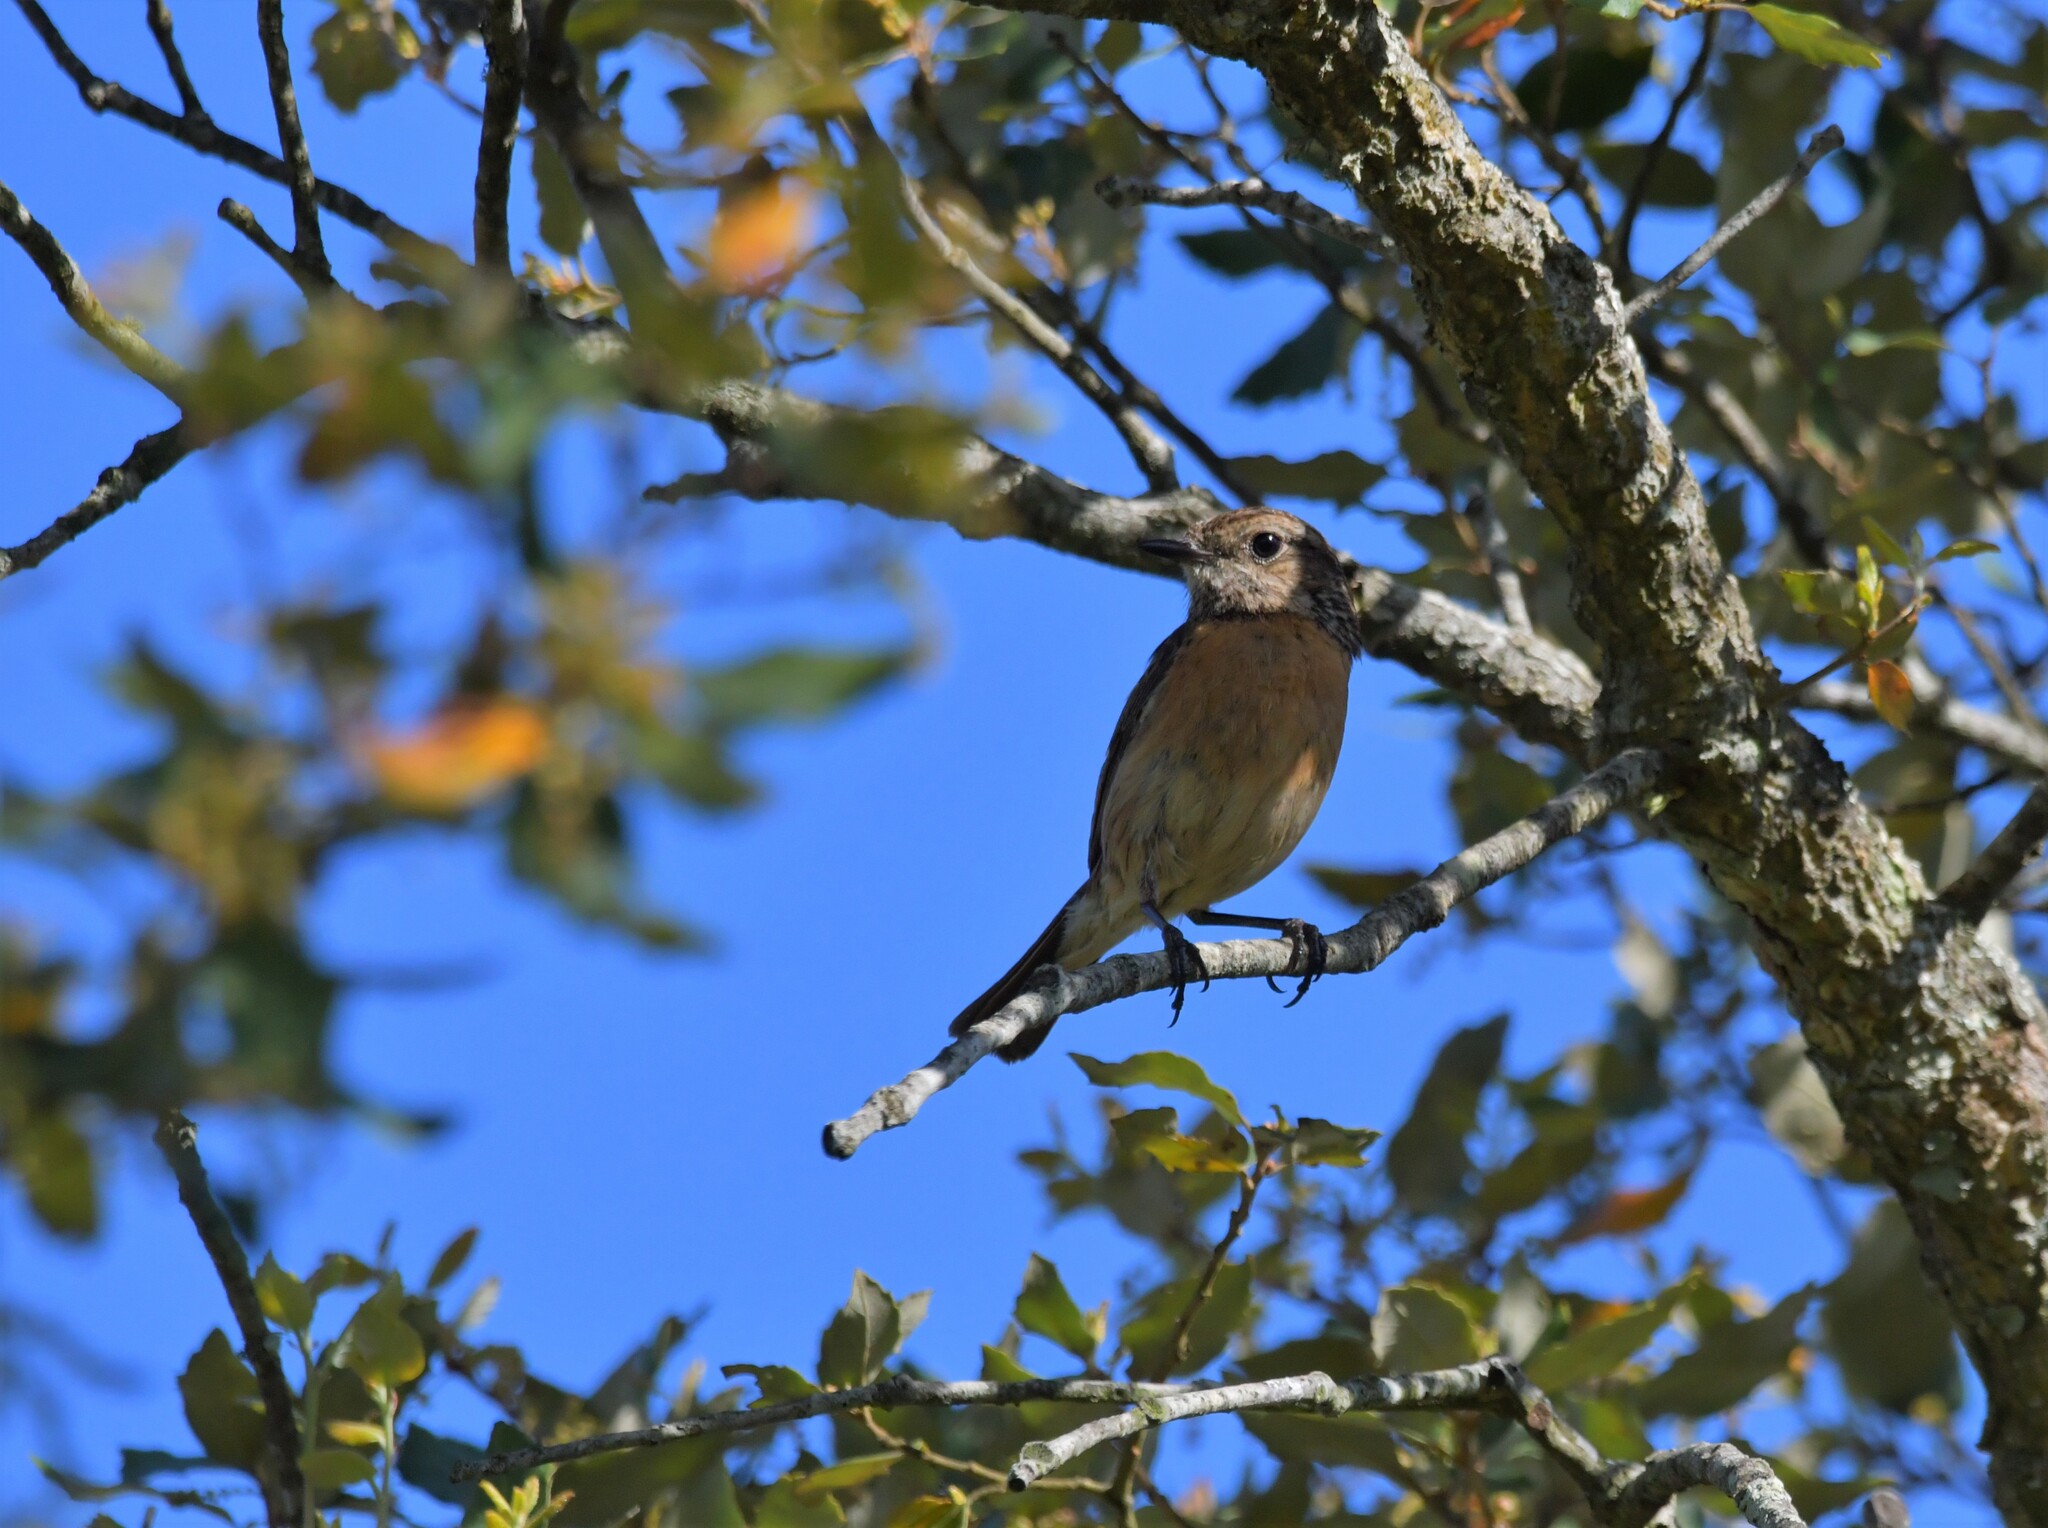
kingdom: Animalia
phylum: Chordata
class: Aves
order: Passeriformes
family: Muscicapidae
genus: Saxicola
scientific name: Saxicola rubicola
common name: European stonechat
